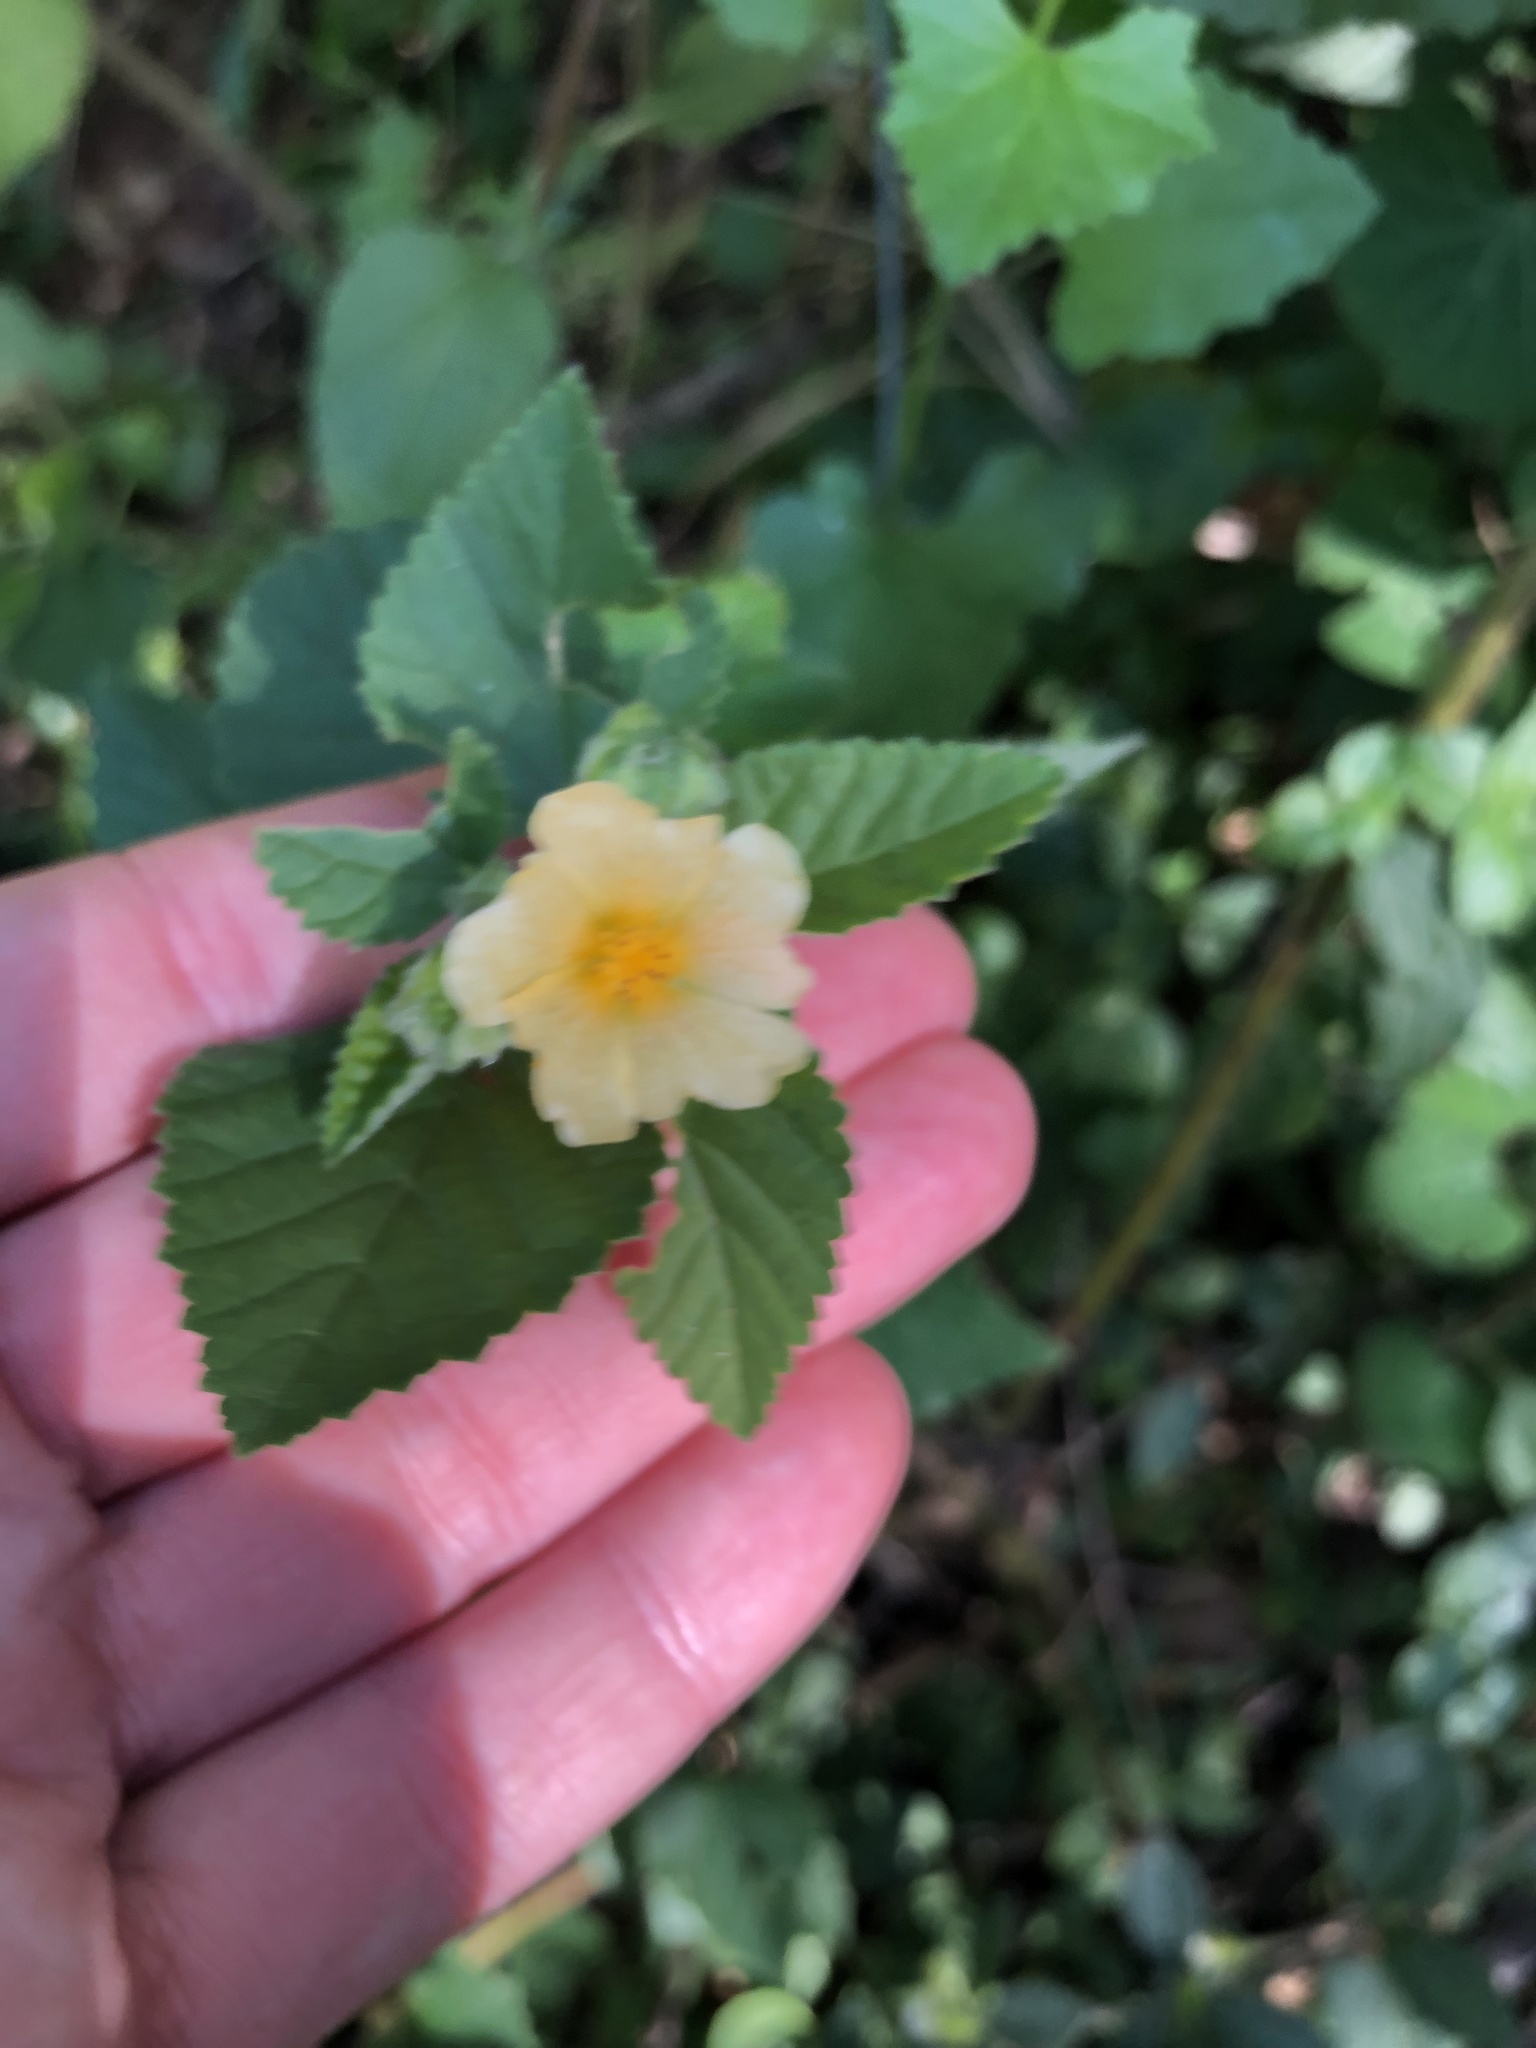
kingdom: Plantae
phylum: Tracheophyta
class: Magnoliopsida
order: Malvales
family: Malvaceae
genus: Sida
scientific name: Sida cordifolia
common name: Ilima
